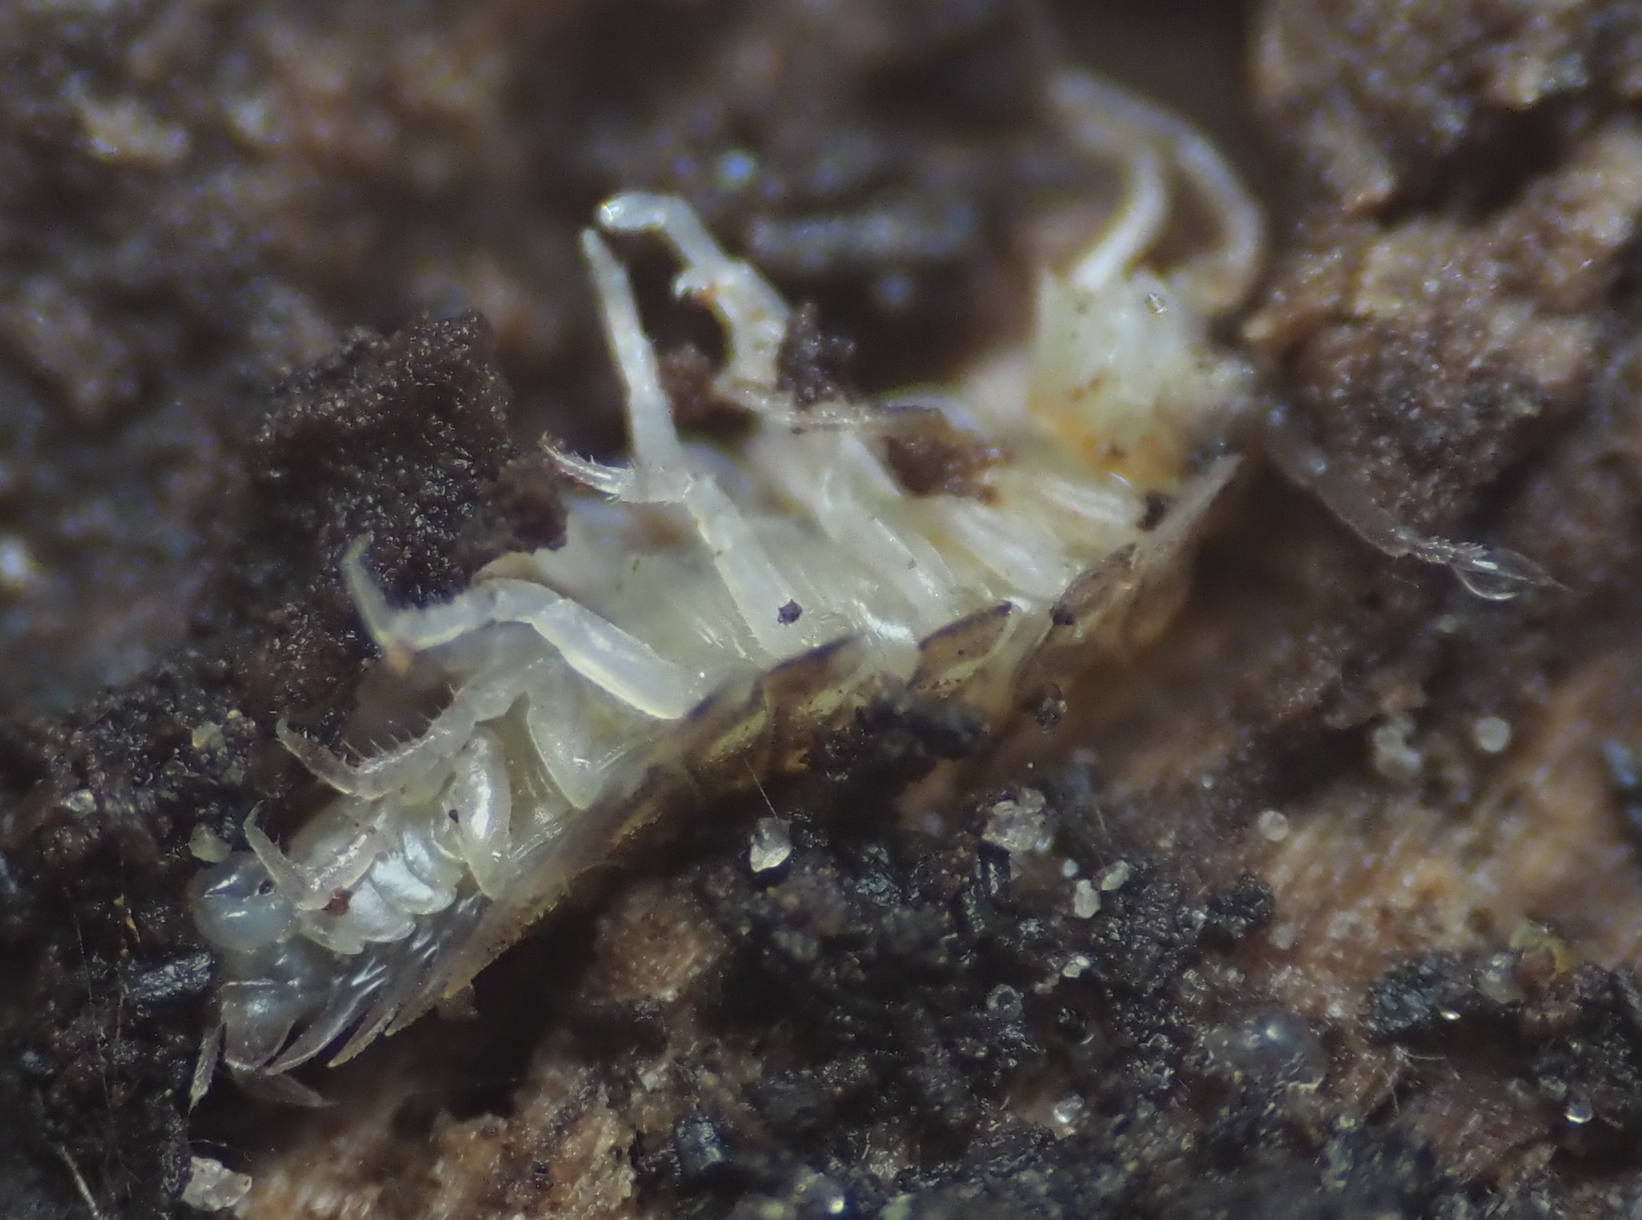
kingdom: Animalia
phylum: Arthropoda
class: Malacostraca
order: Isopoda
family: Trachelipodidae
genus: Trachelipus
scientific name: Trachelipus rathkii
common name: Isopod
